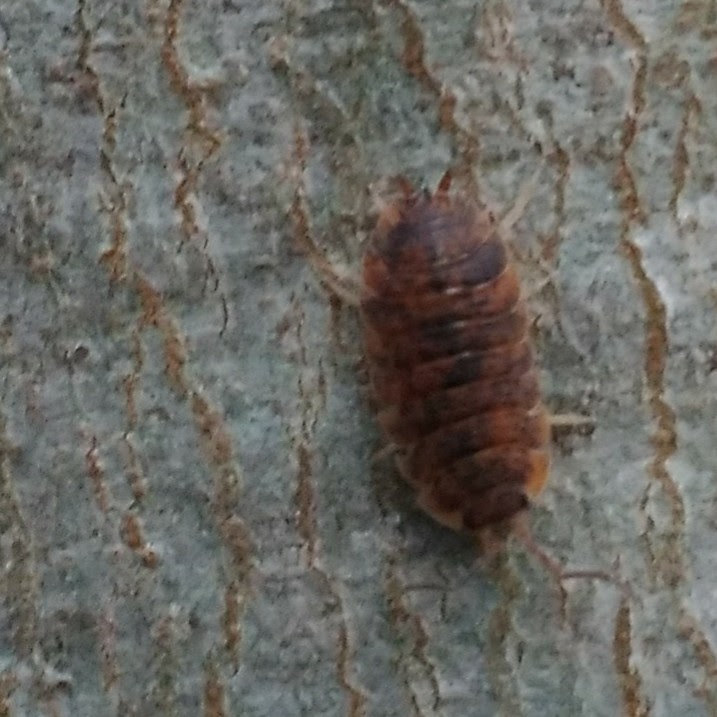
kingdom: Animalia
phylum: Arthropoda
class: Malacostraca
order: Isopoda
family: Porcellionidae
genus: Porcellio
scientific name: Porcellio scaber
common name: Common rough woodlouse
